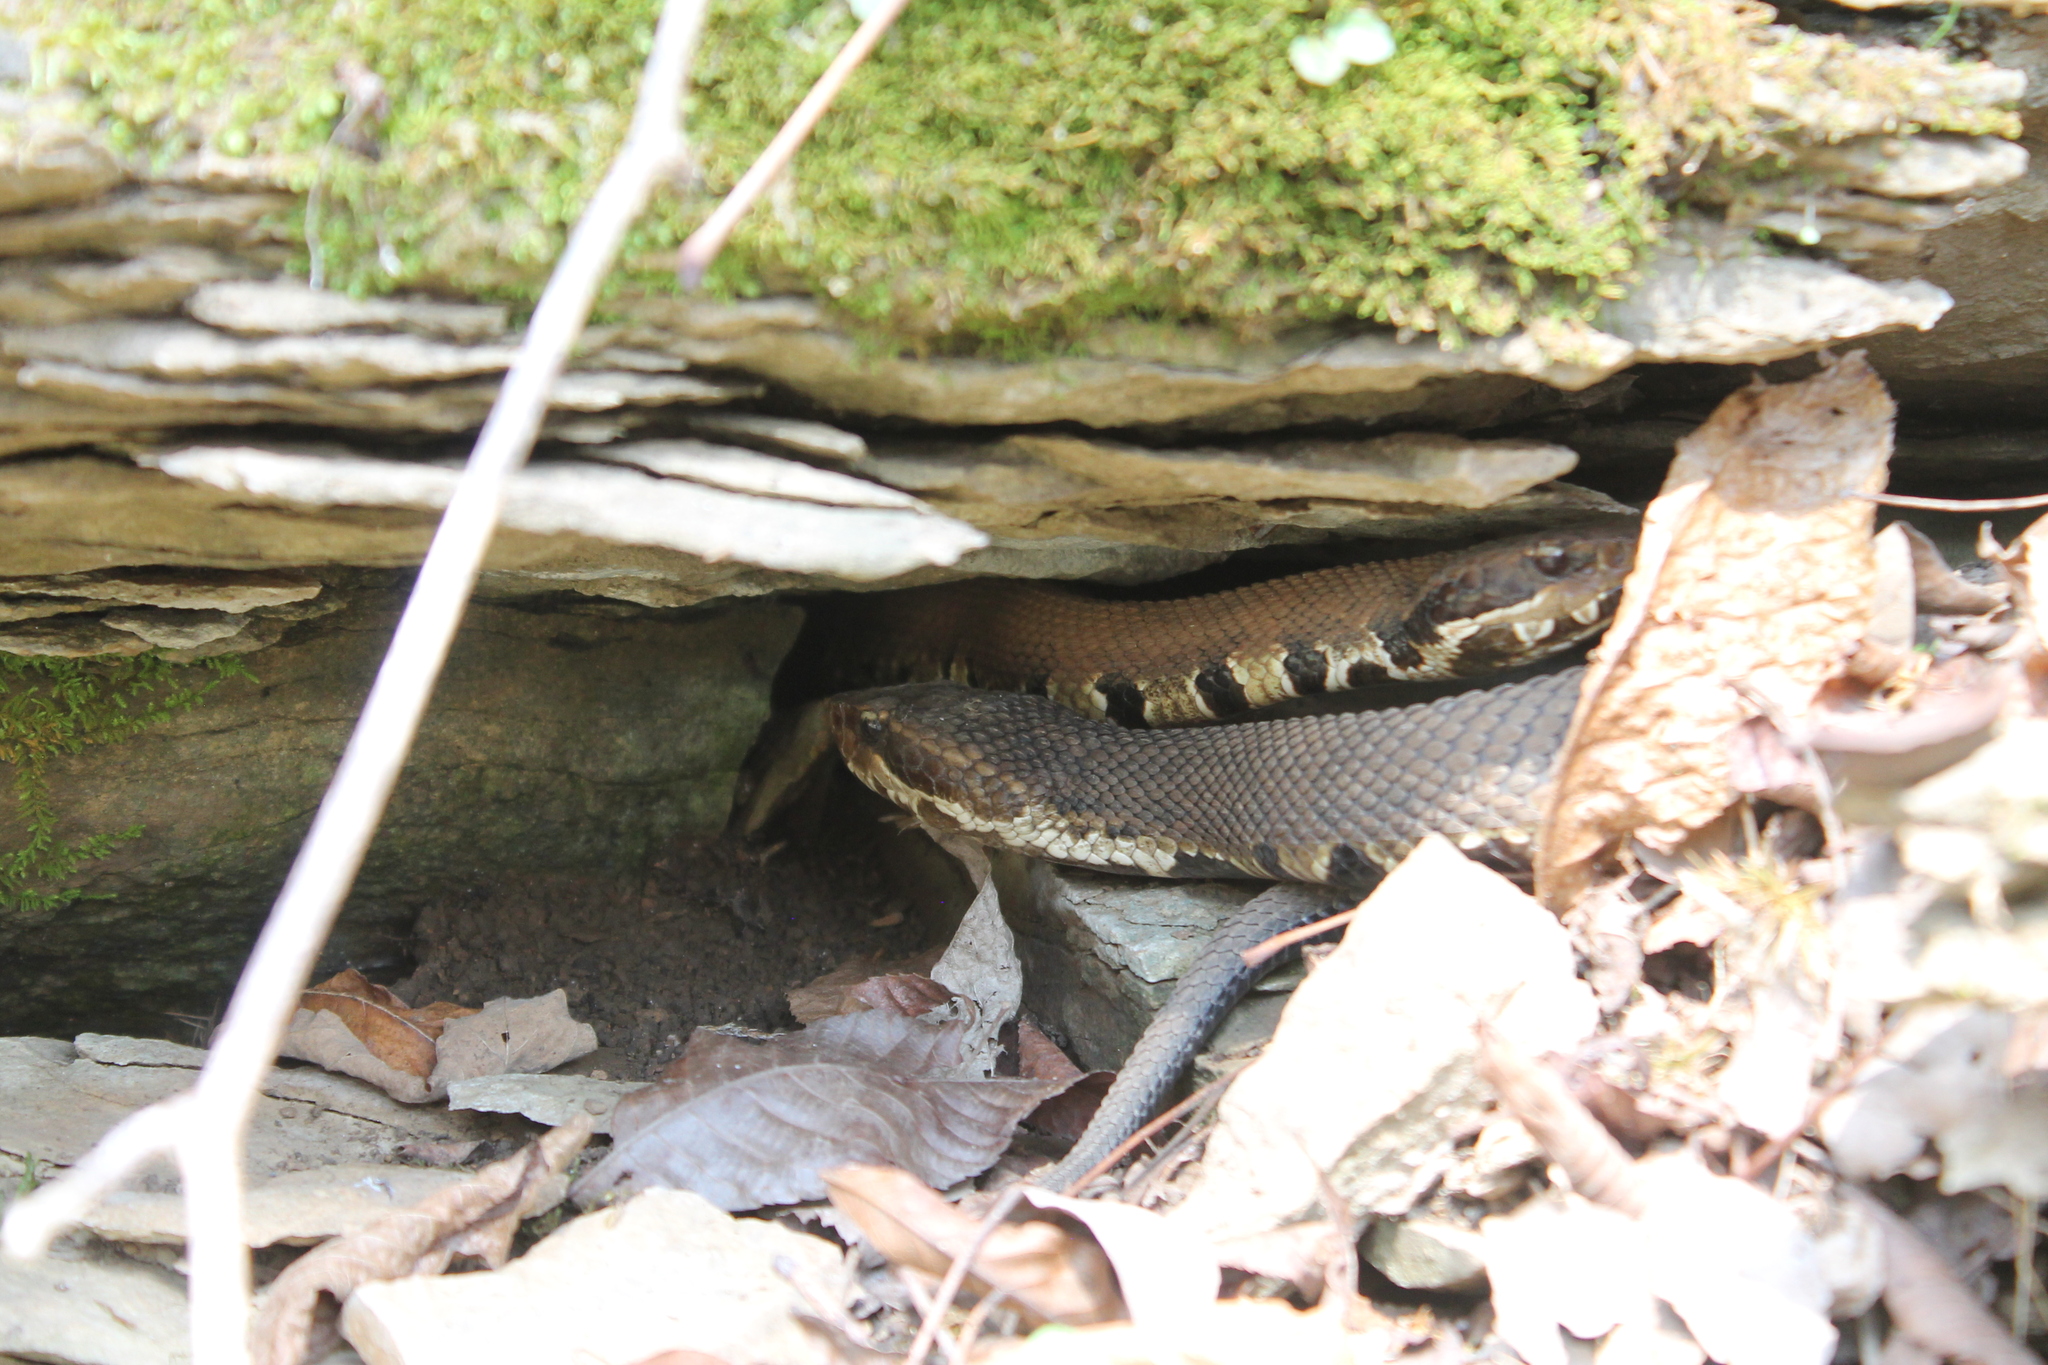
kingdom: Animalia
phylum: Chordata
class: Squamata
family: Viperidae
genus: Agkistrodon
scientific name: Agkistrodon piscivorus
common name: Cottonmouth
